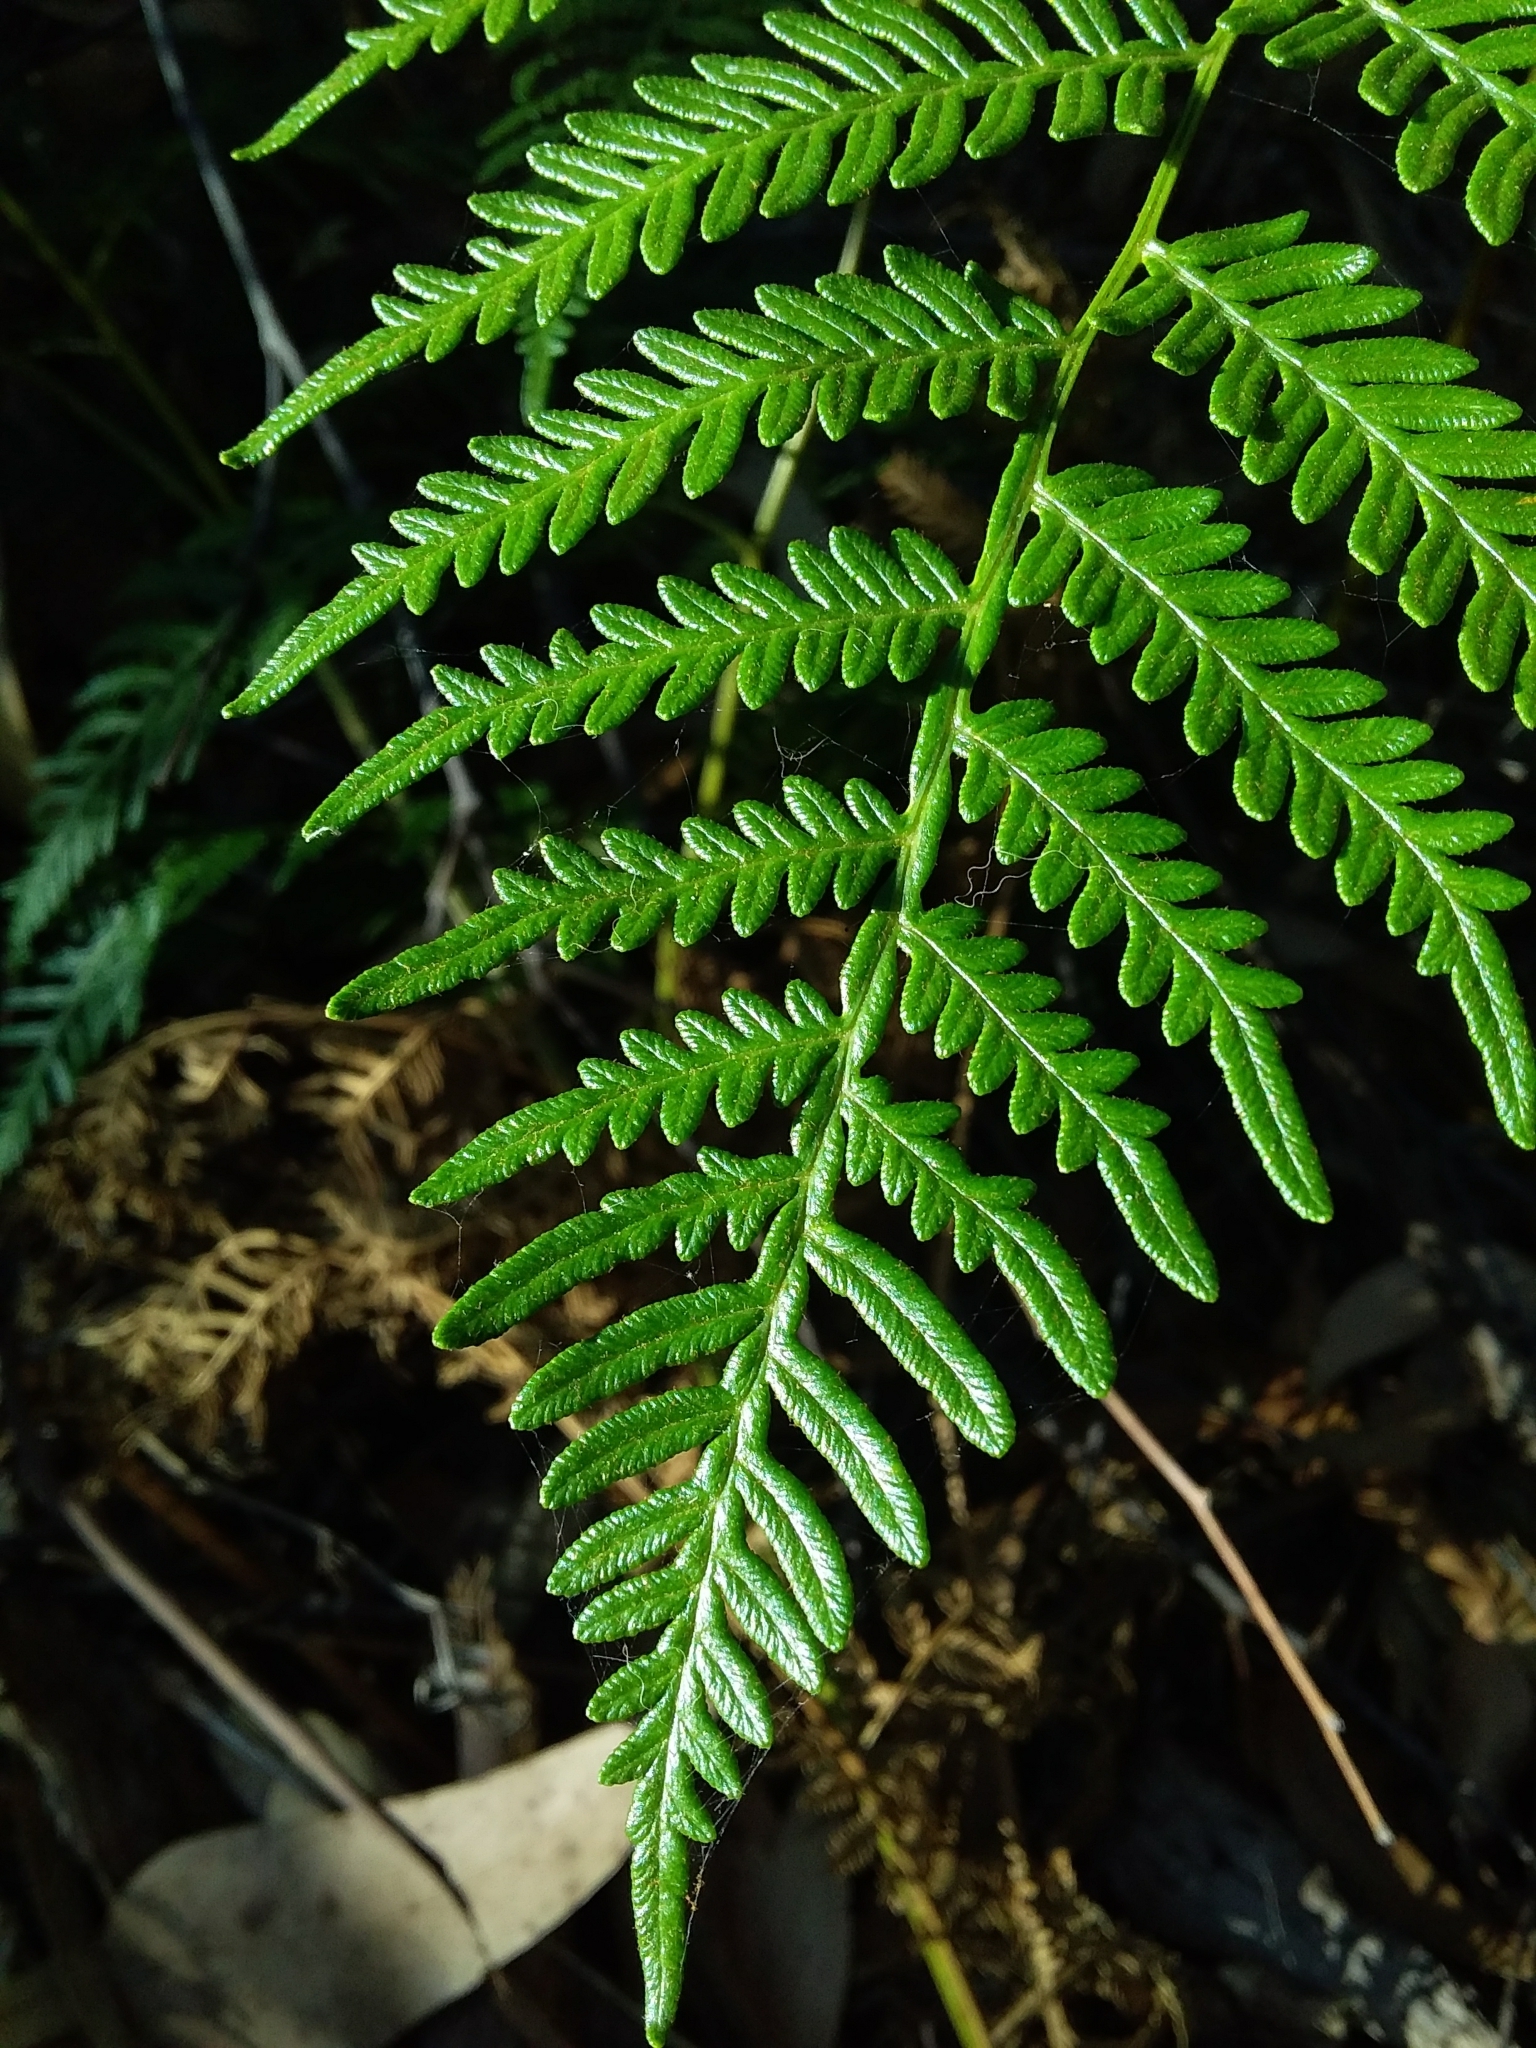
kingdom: Plantae
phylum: Tracheophyta
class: Polypodiopsida
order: Polypodiales
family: Dennstaedtiaceae
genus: Pteridium
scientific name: Pteridium esculentum
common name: Bracken fern
